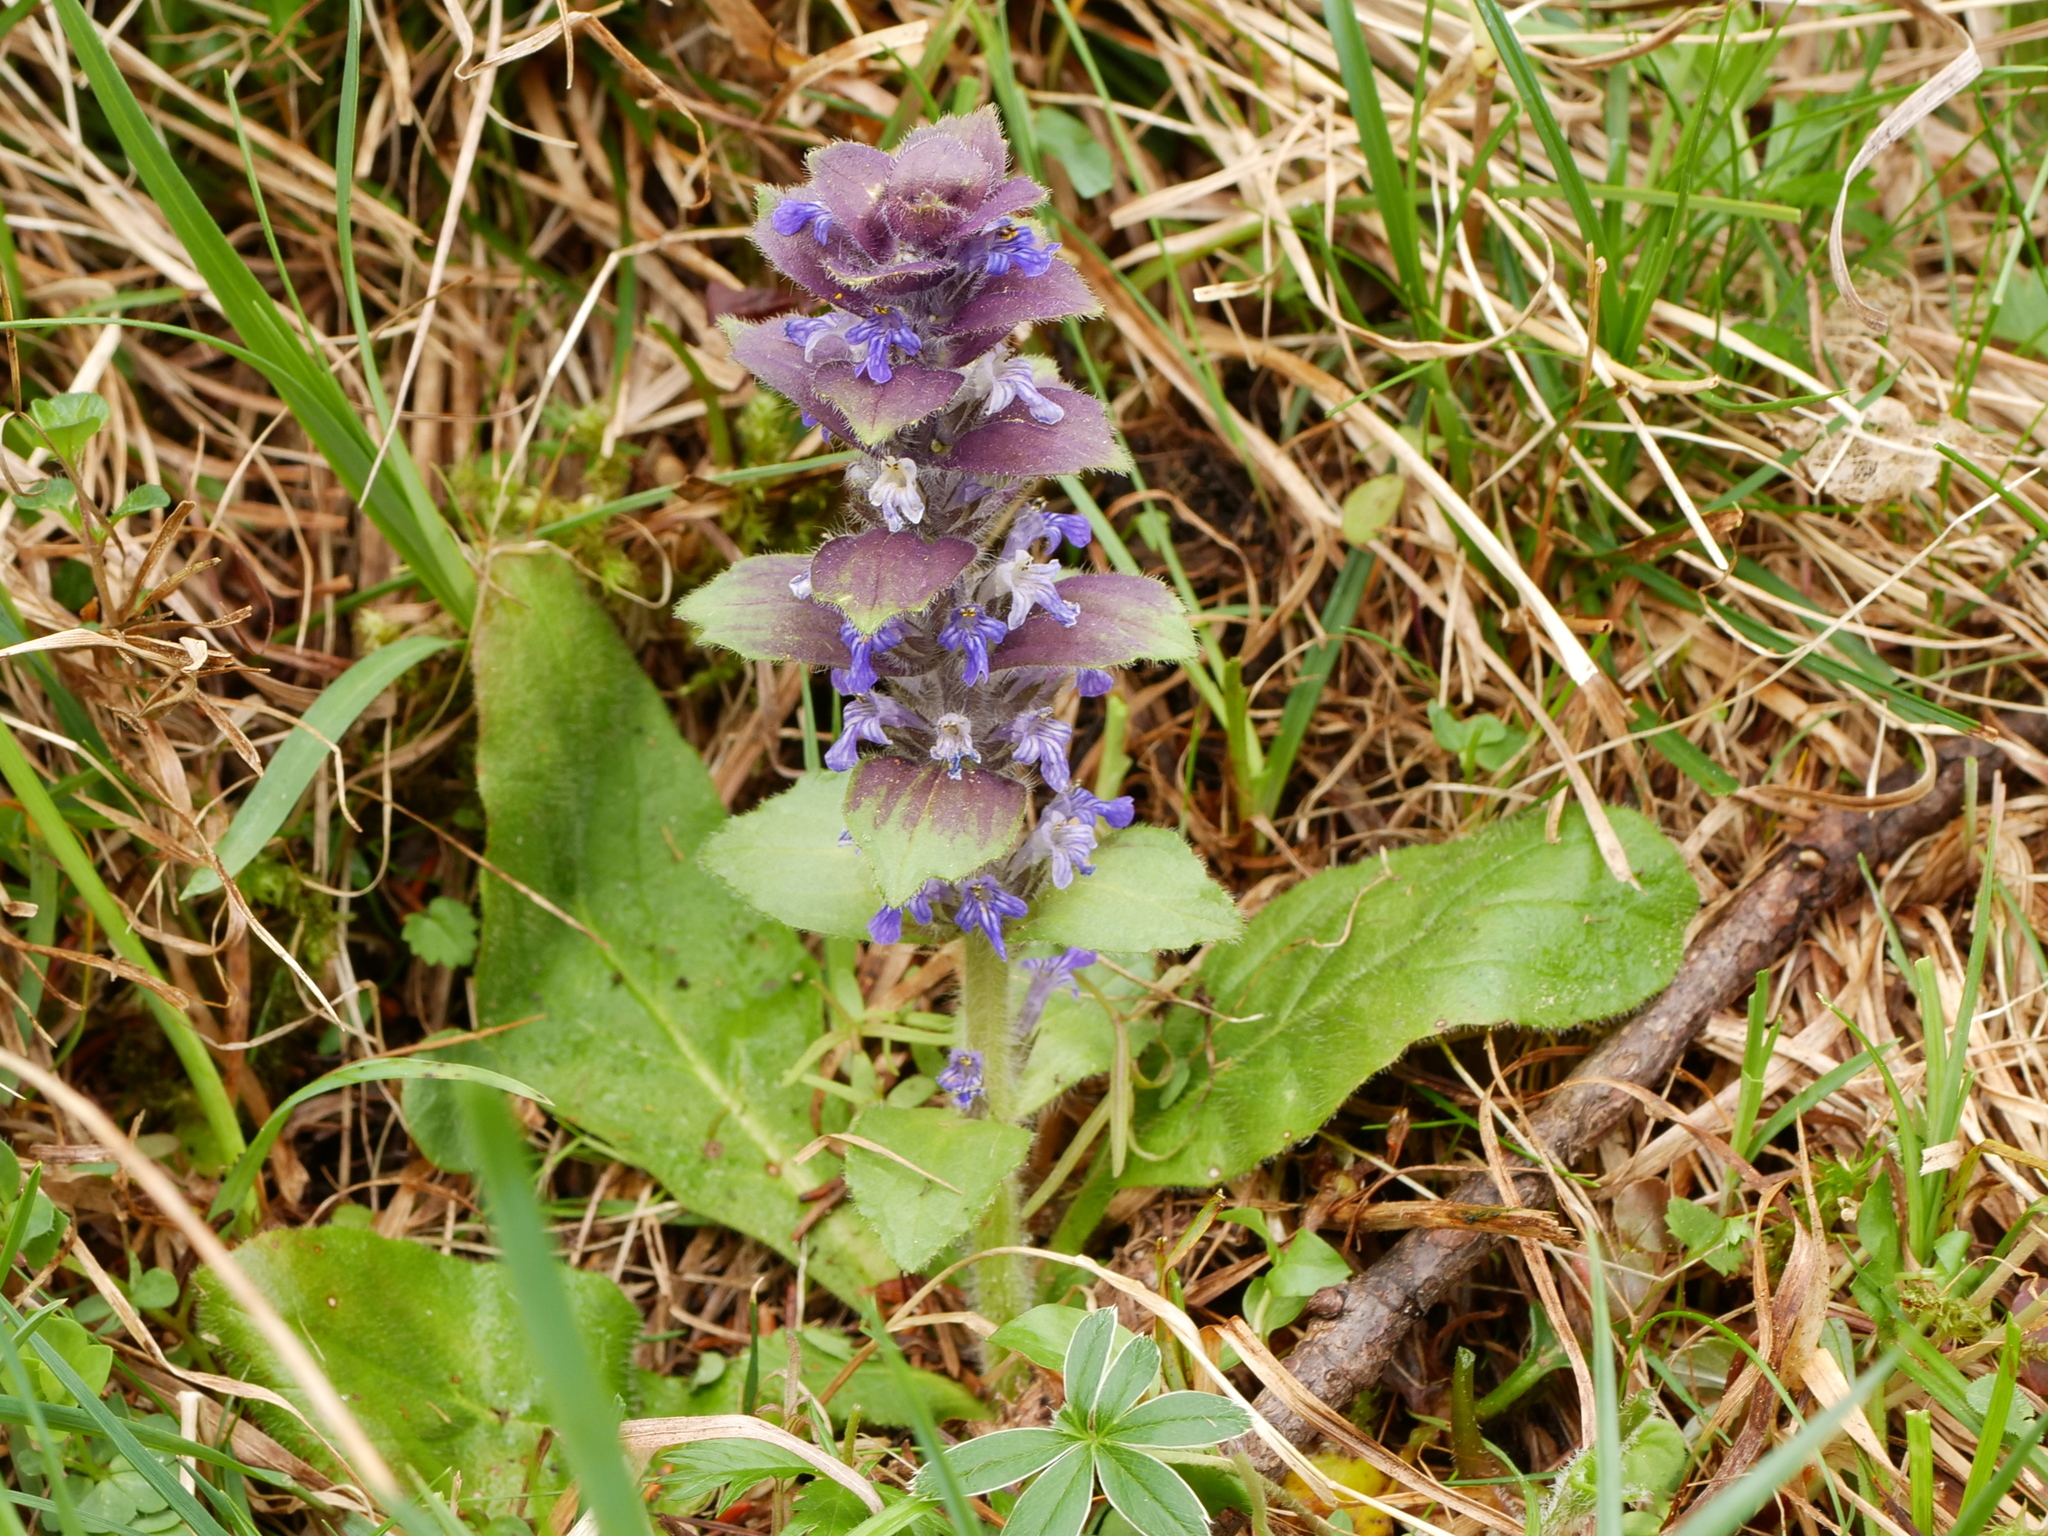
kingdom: Plantae
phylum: Tracheophyta
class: Magnoliopsida
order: Lamiales
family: Lamiaceae
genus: Ajuga
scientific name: Ajuga pyramidalis
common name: Pyramid bugle
